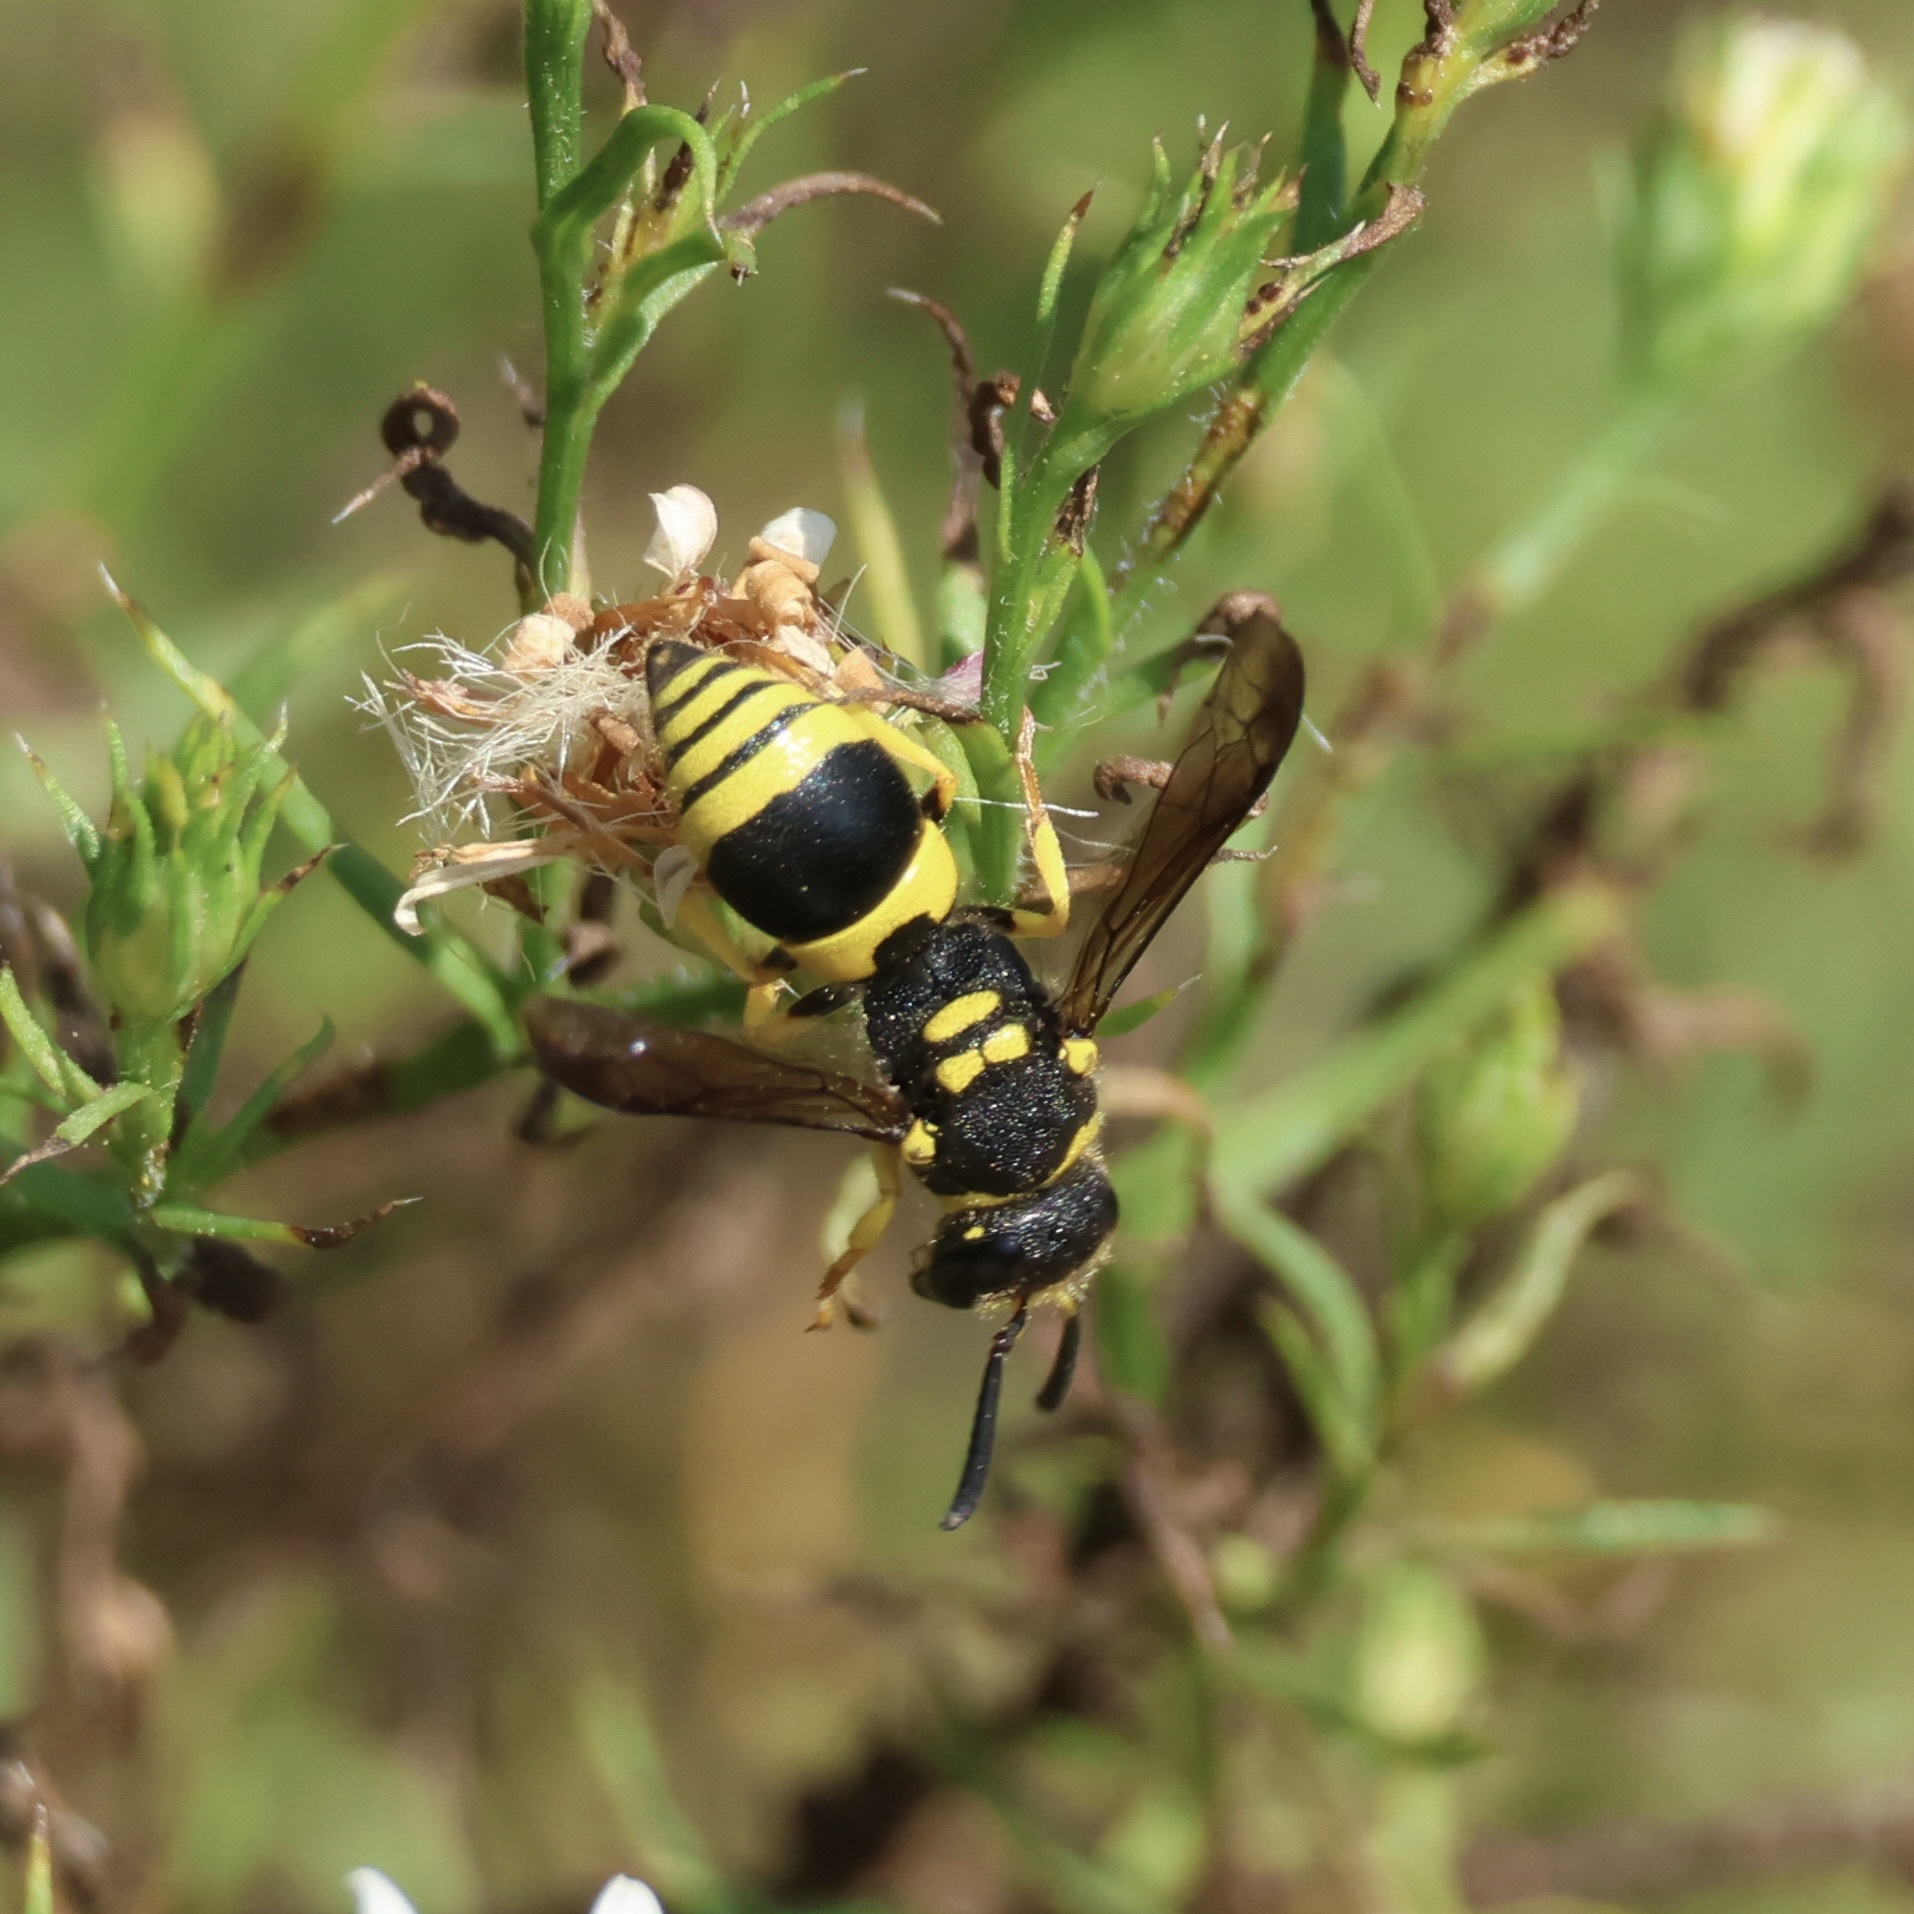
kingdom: Animalia
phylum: Arthropoda
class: Insecta
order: Hymenoptera
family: Vespidae
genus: Ancistrocerus
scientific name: Ancistrocerus gazella
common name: European tube wasp
